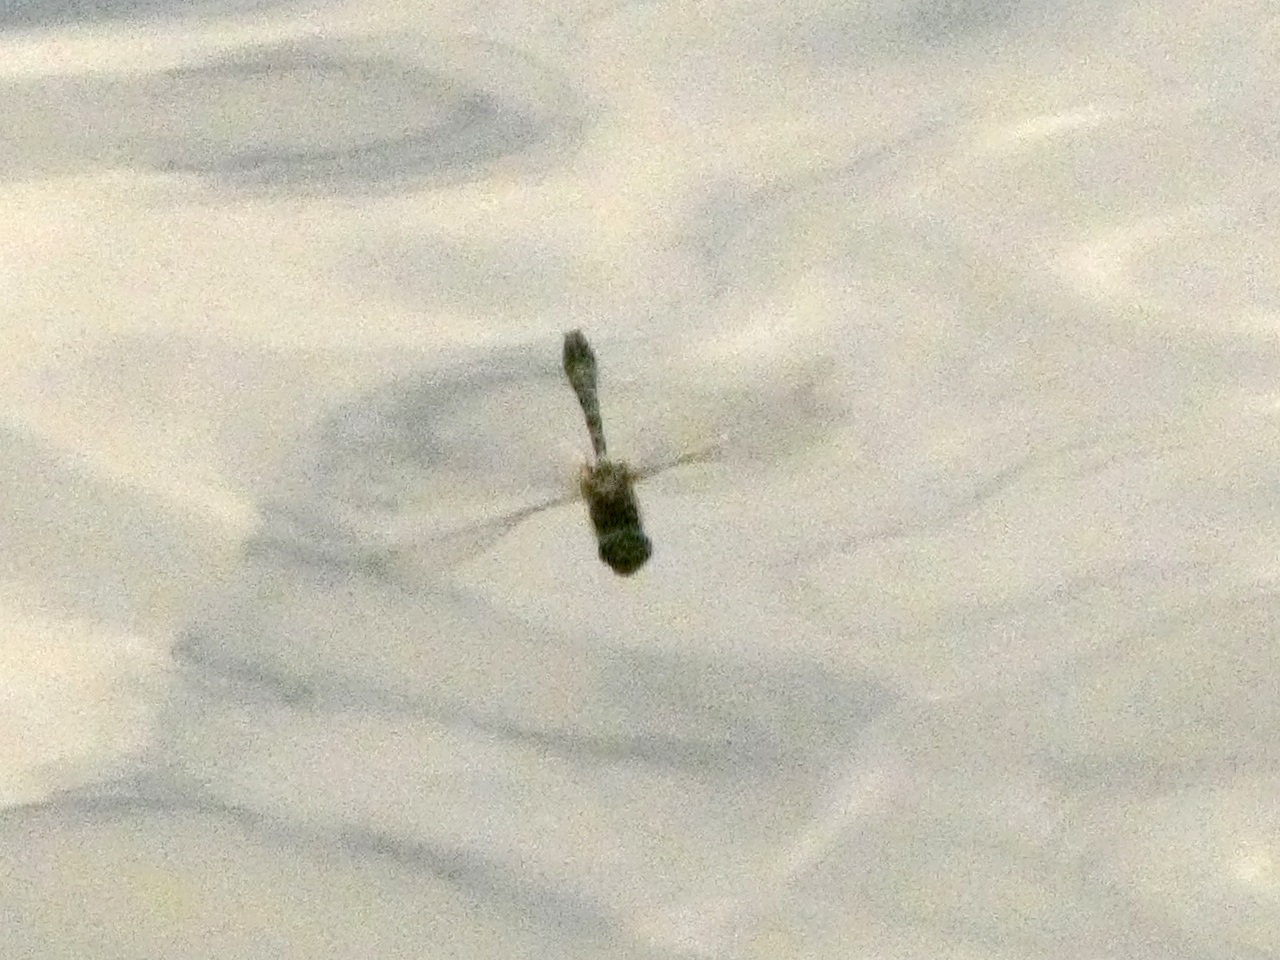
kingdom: Animalia
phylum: Arthropoda
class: Insecta
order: Odonata
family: Corduliidae
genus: Cordulia
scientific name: Cordulia aenea
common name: Downy emerald
